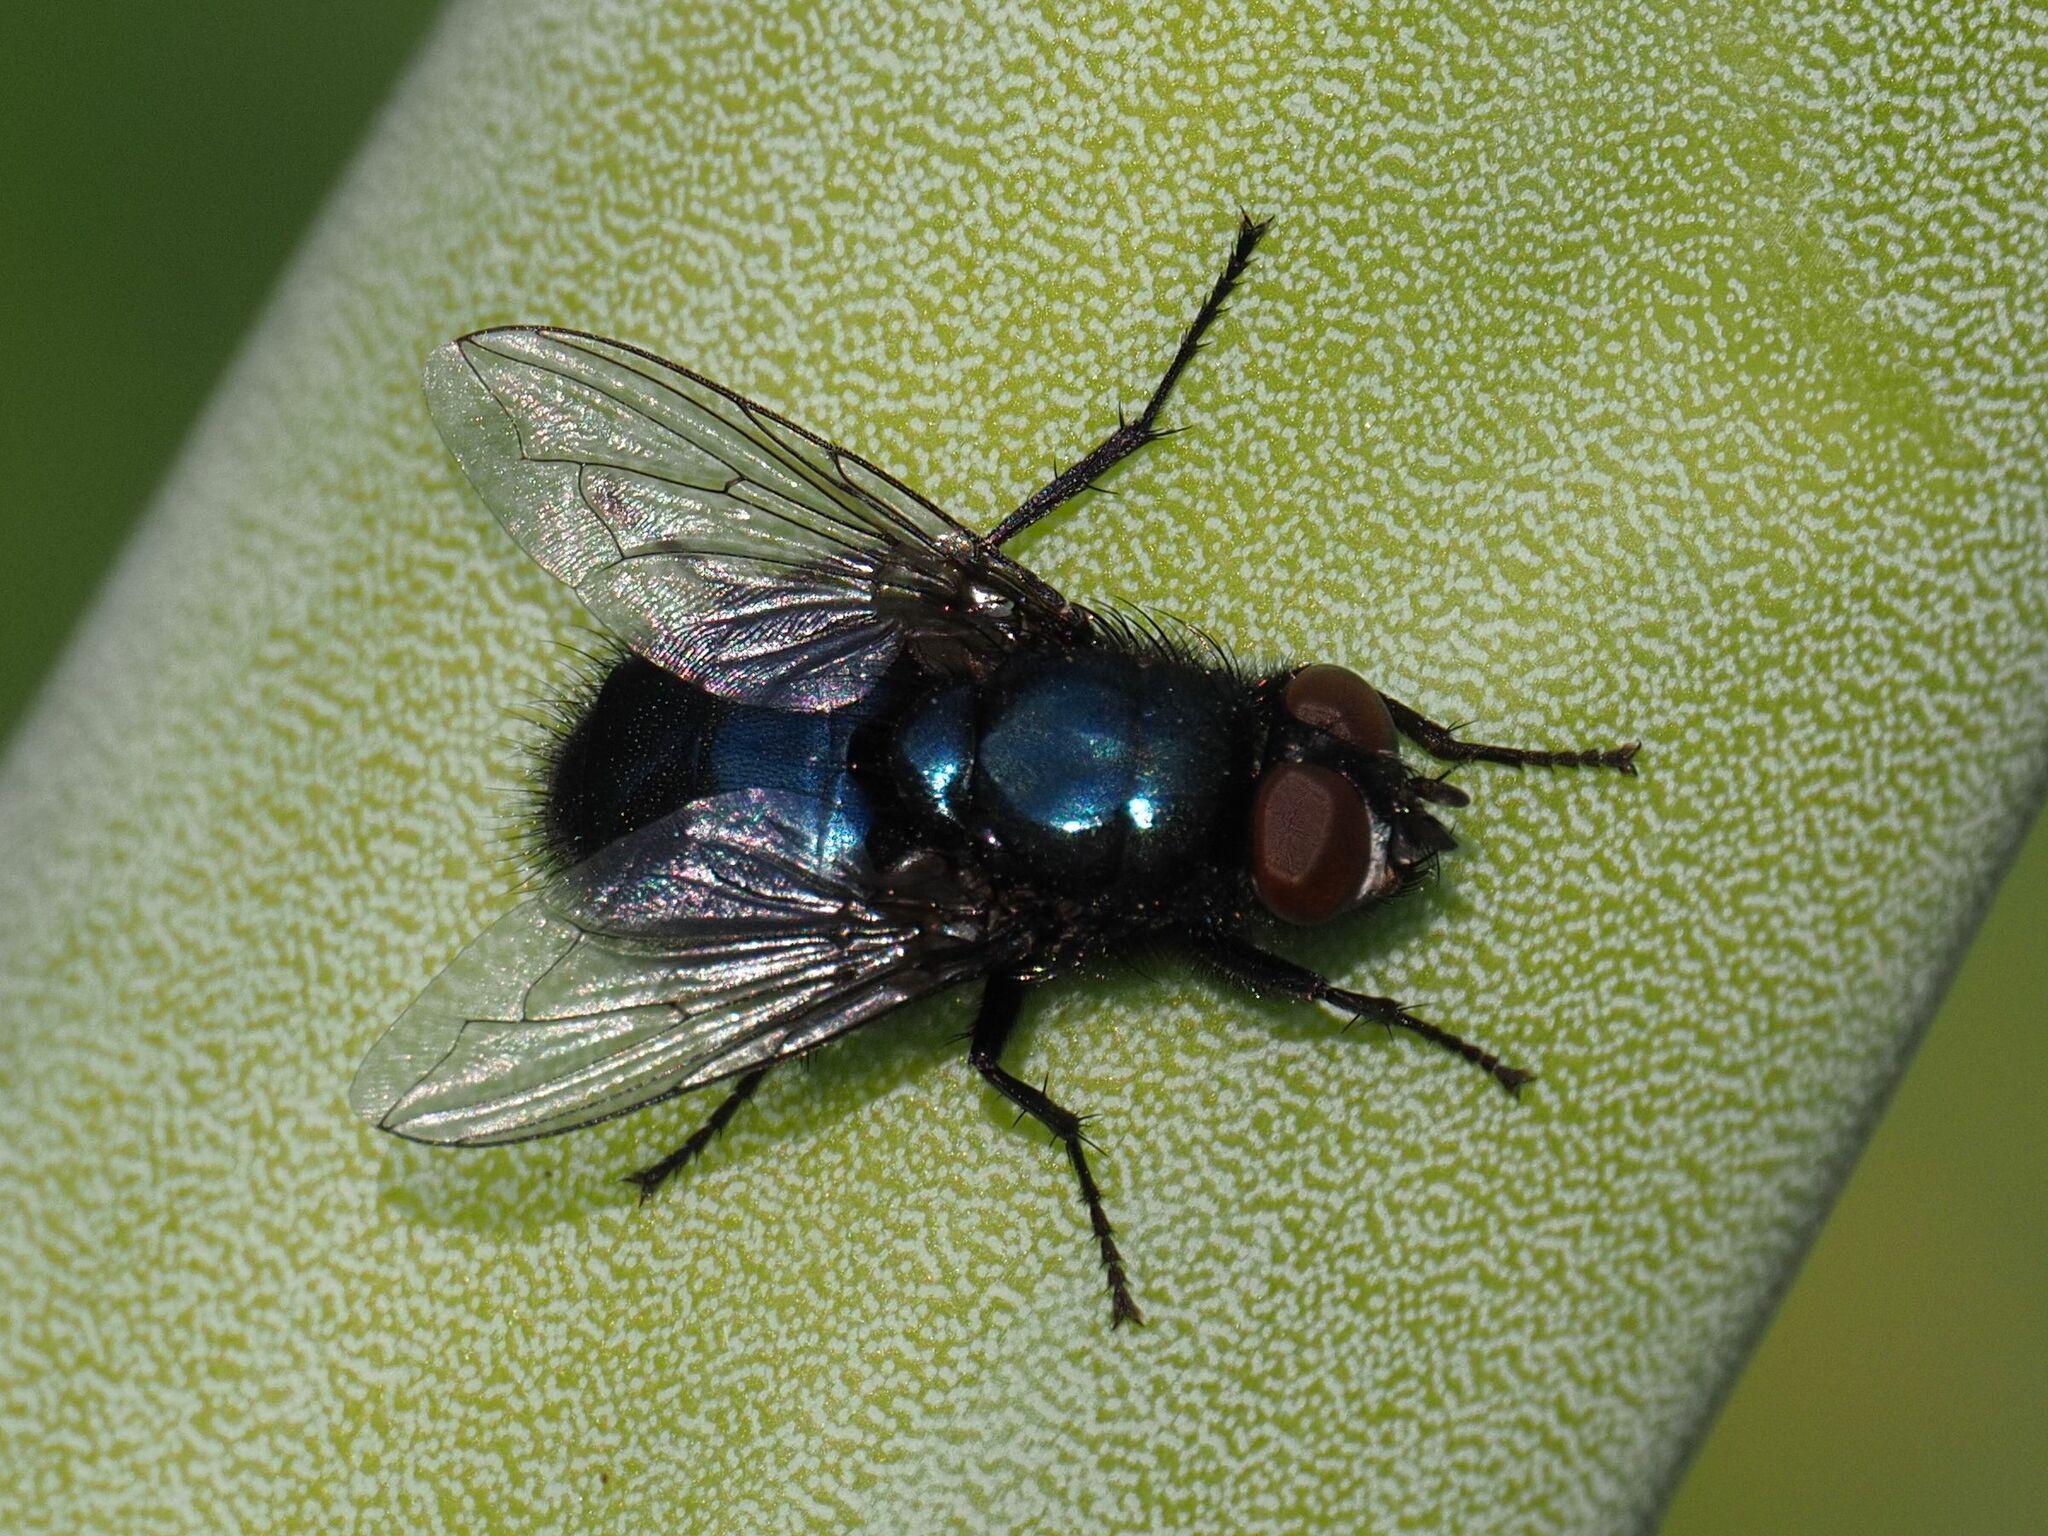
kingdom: Animalia
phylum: Arthropoda
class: Insecta
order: Diptera
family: Calliphoridae
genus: Protophormia
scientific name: Protophormia terraenovae
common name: Blackbottle
